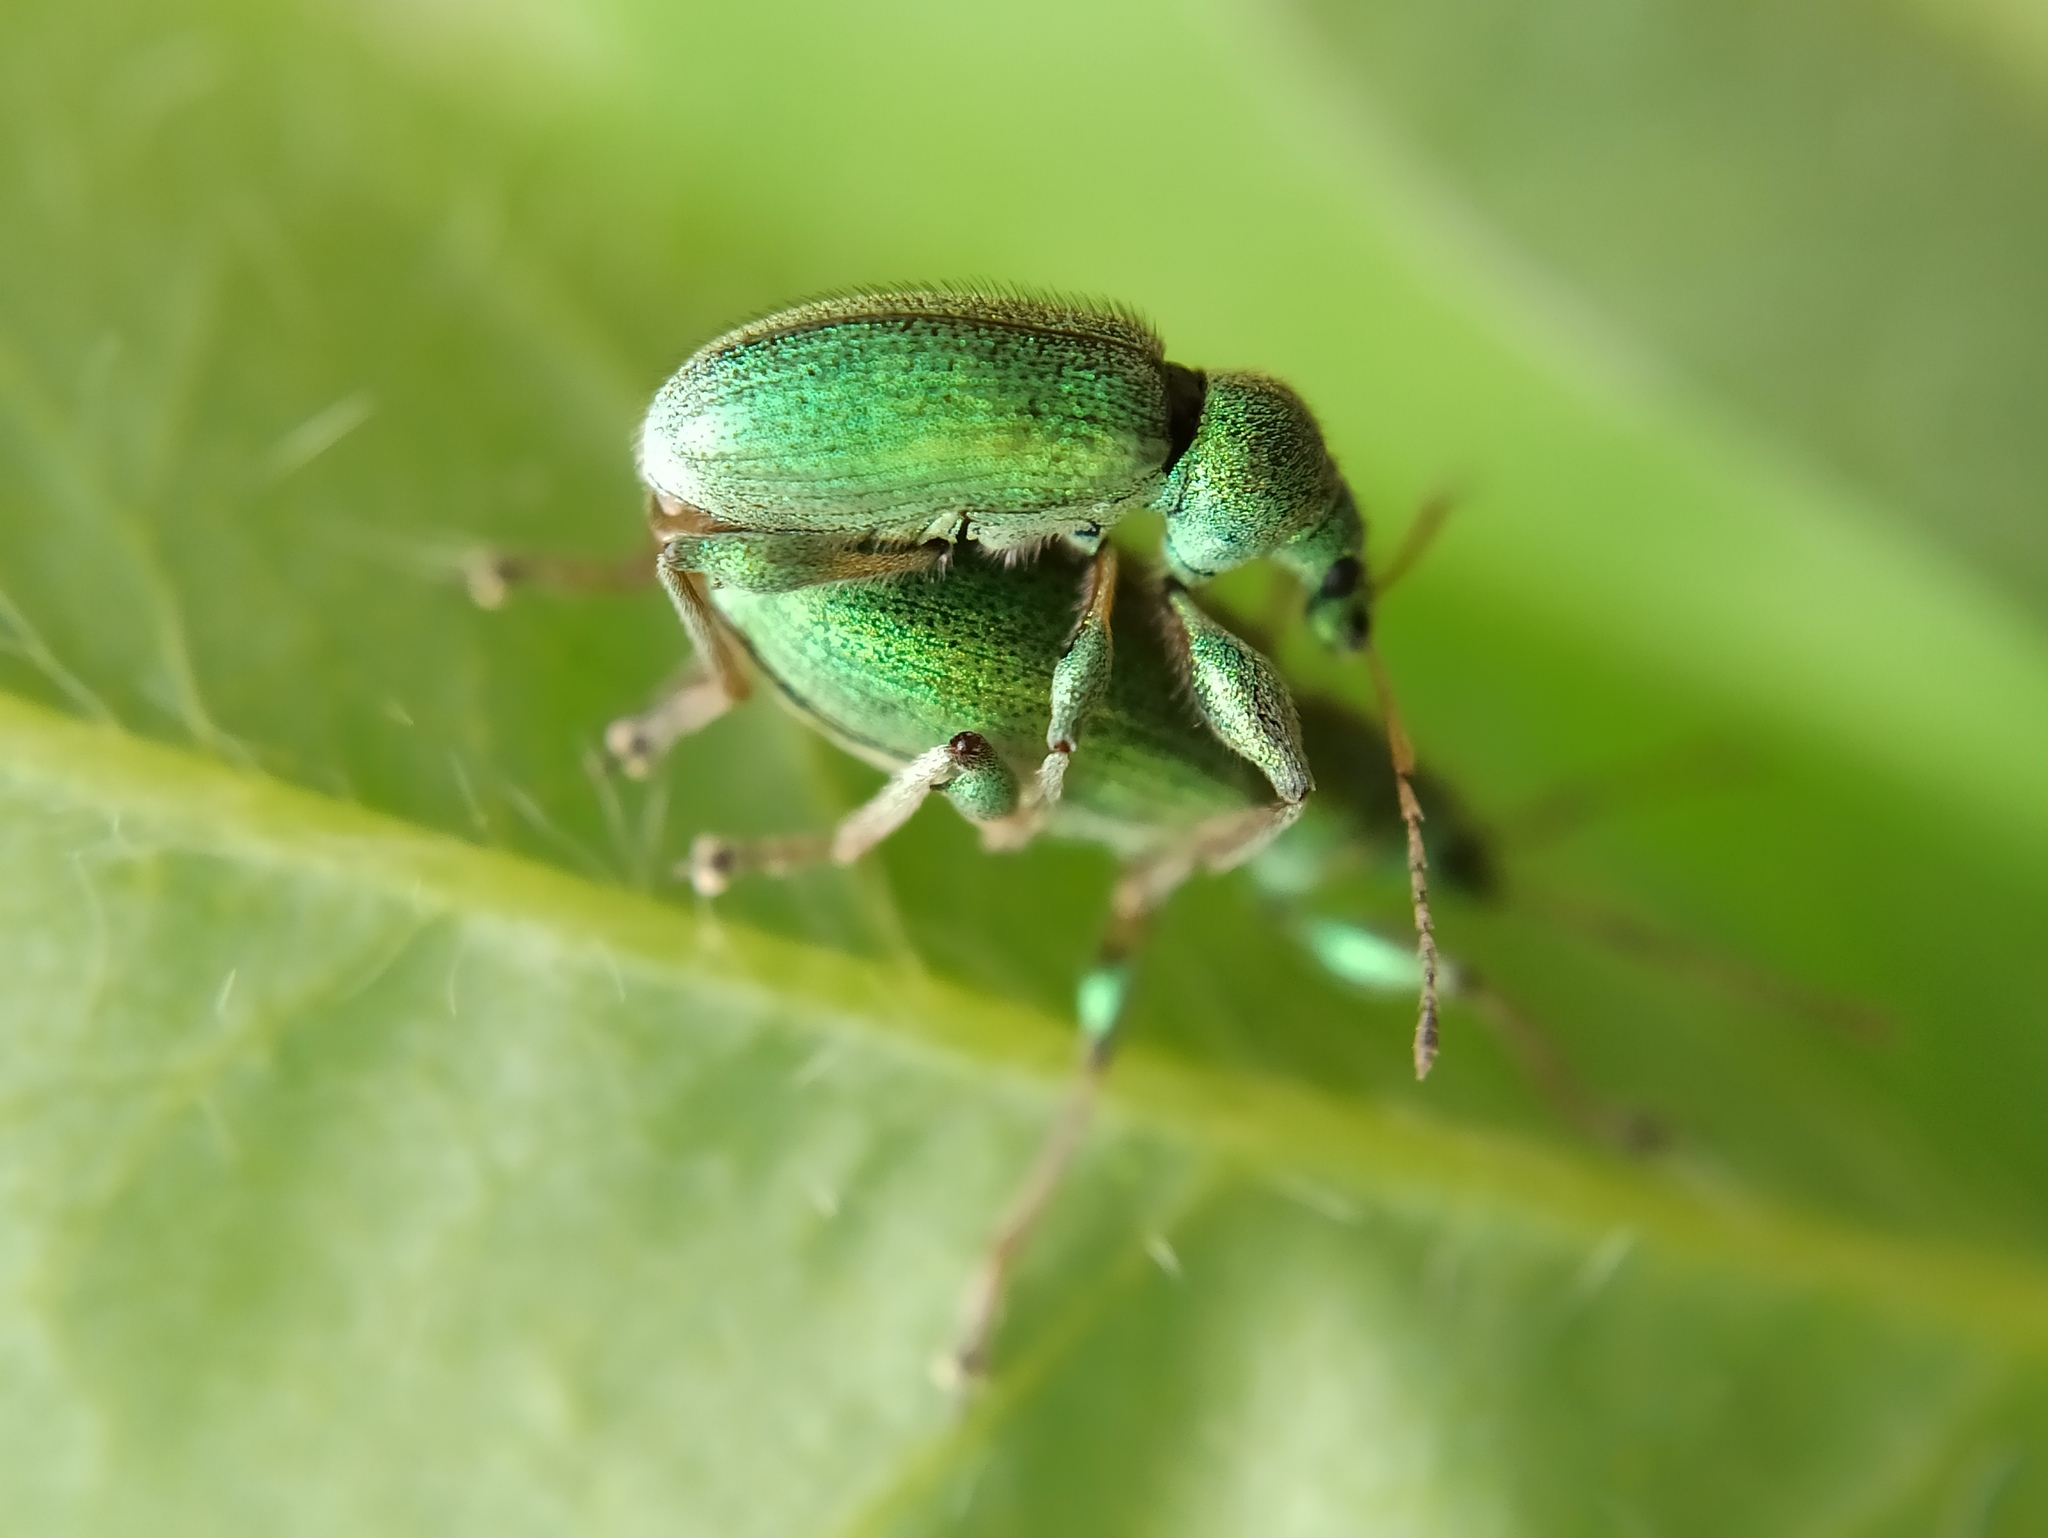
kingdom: Animalia
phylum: Arthropoda
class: Insecta
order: Coleoptera
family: Curculionidae
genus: Phyllobius
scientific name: Phyllobius arborator
